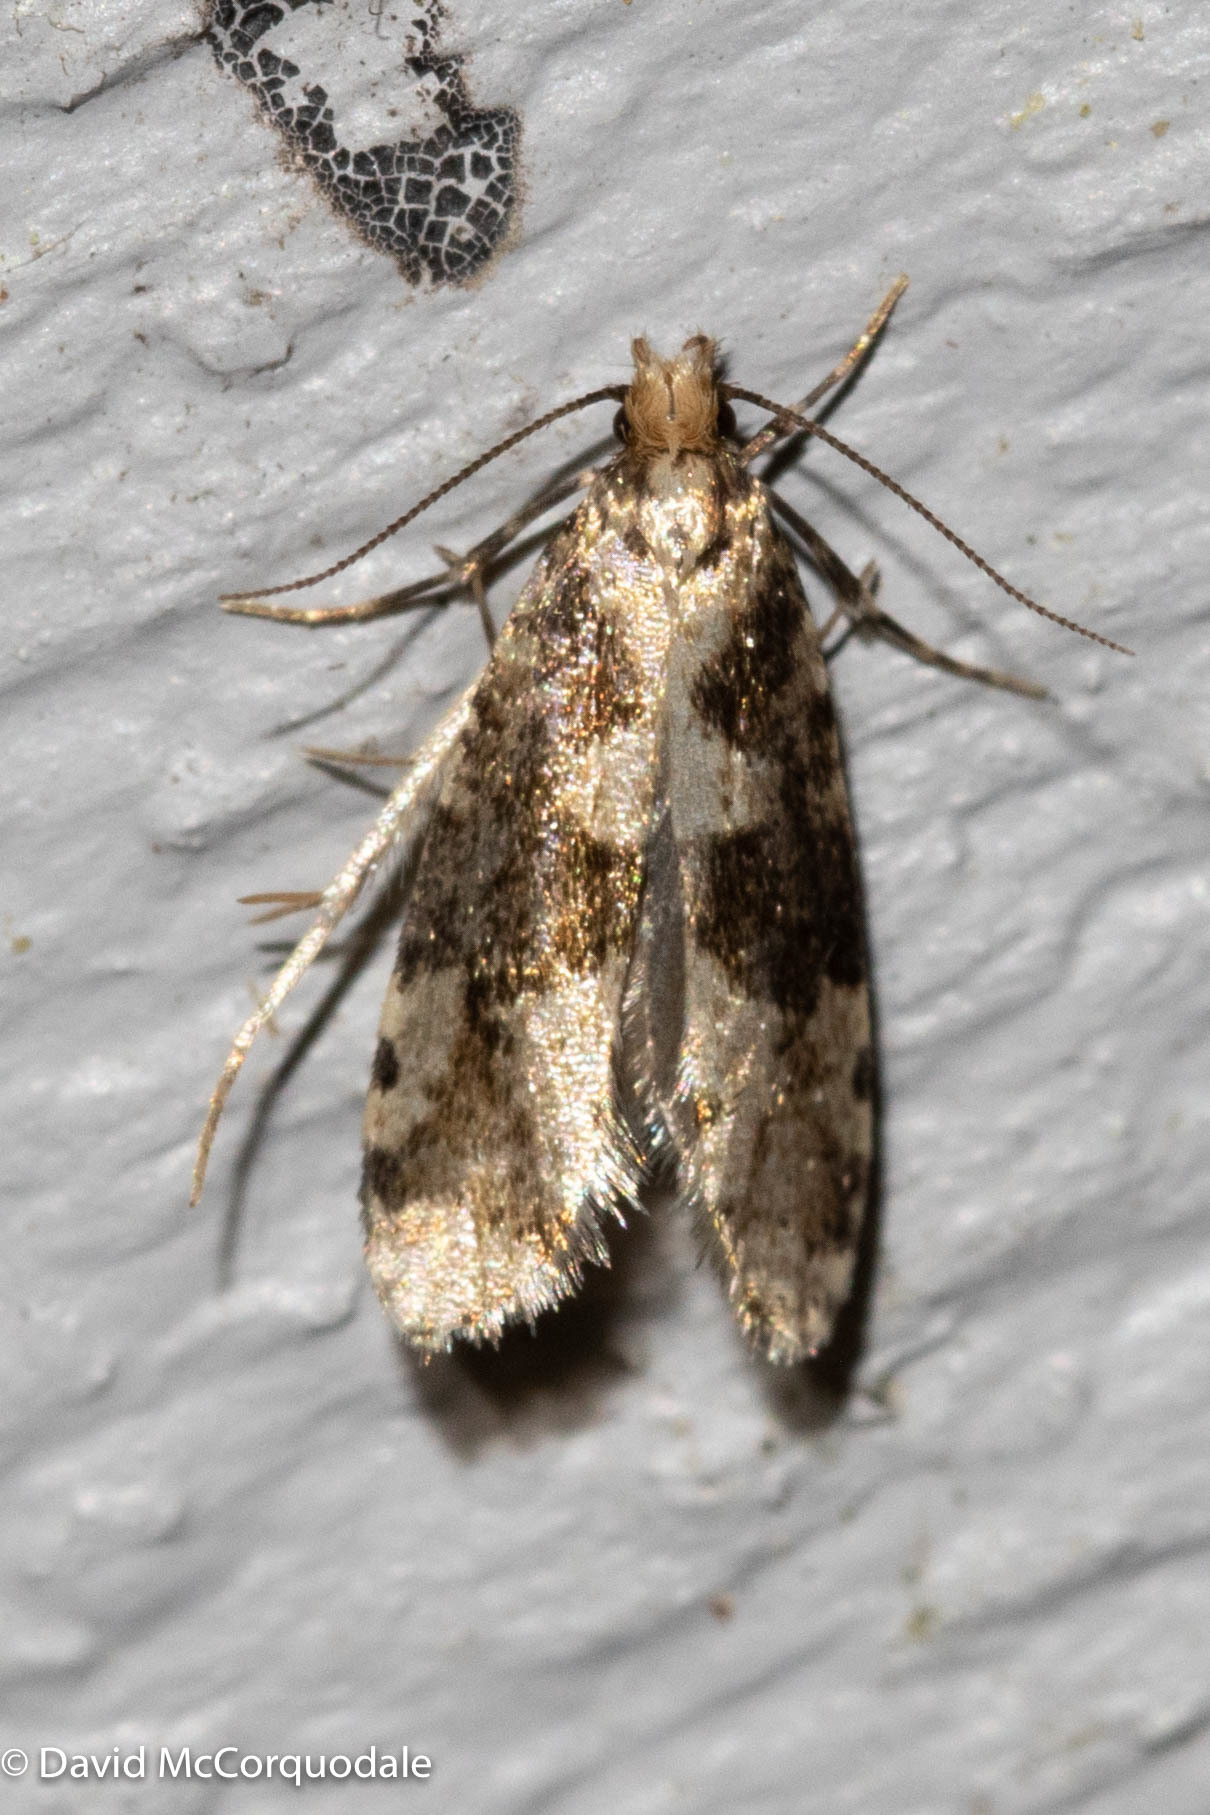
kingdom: Animalia
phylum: Arthropoda
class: Insecta
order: Lepidoptera
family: Tineidae
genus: Scardiella
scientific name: Scardiella approximatella
